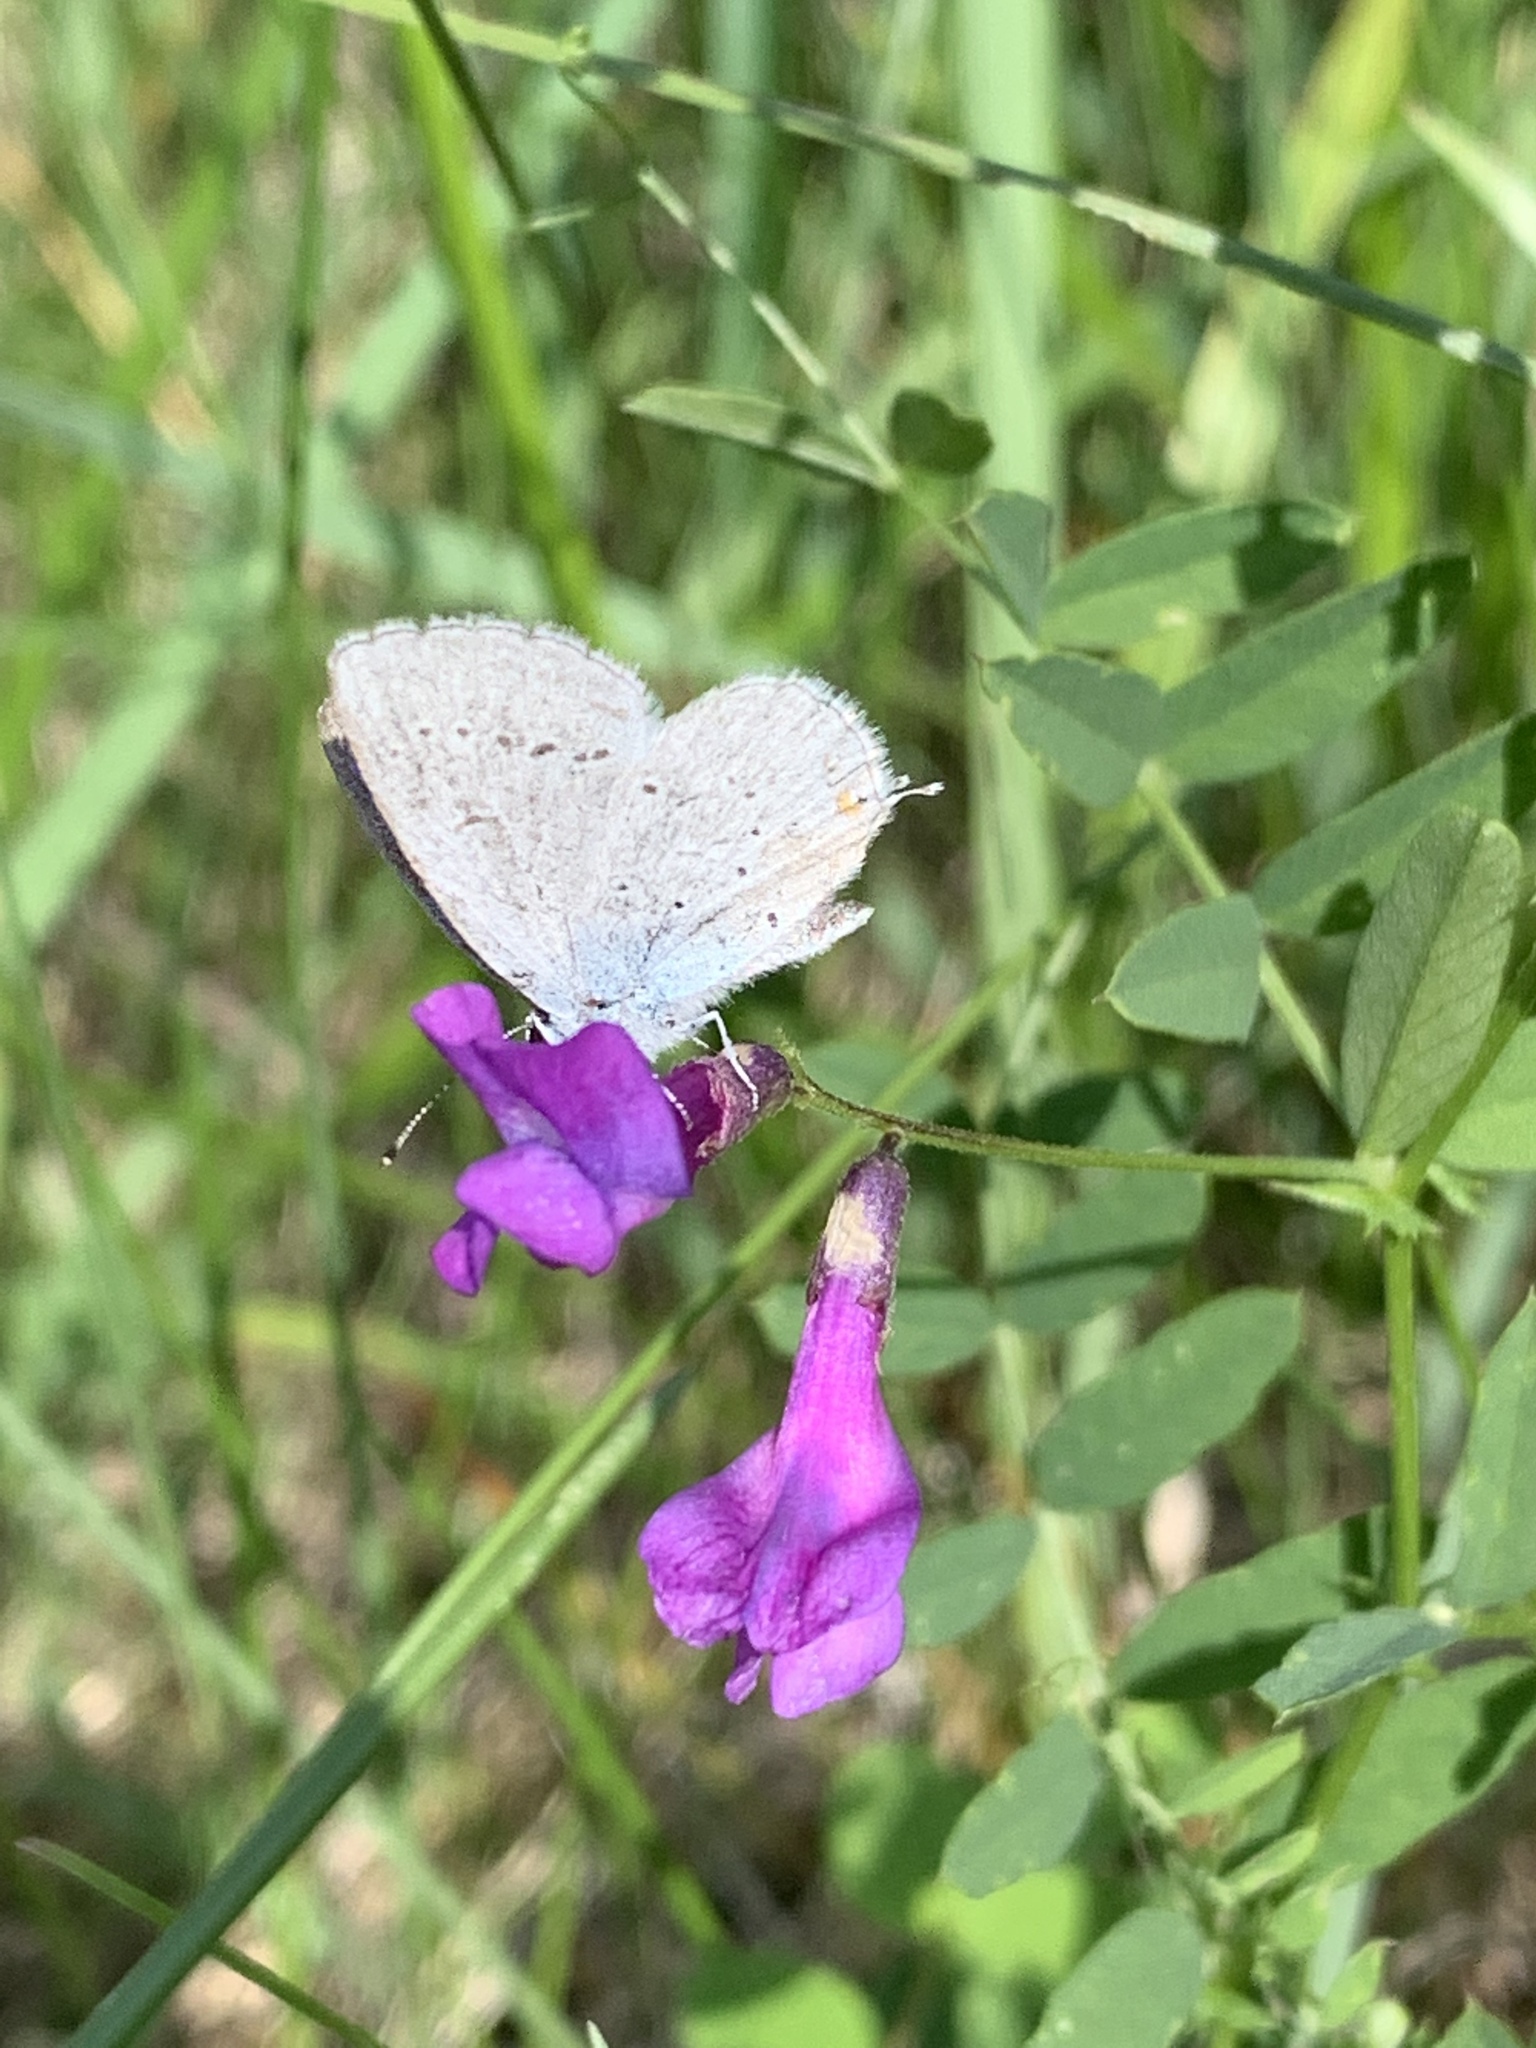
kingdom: Animalia
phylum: Arthropoda
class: Insecta
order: Lepidoptera
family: Lycaenidae
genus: Elkalyce
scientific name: Elkalyce amyntula
